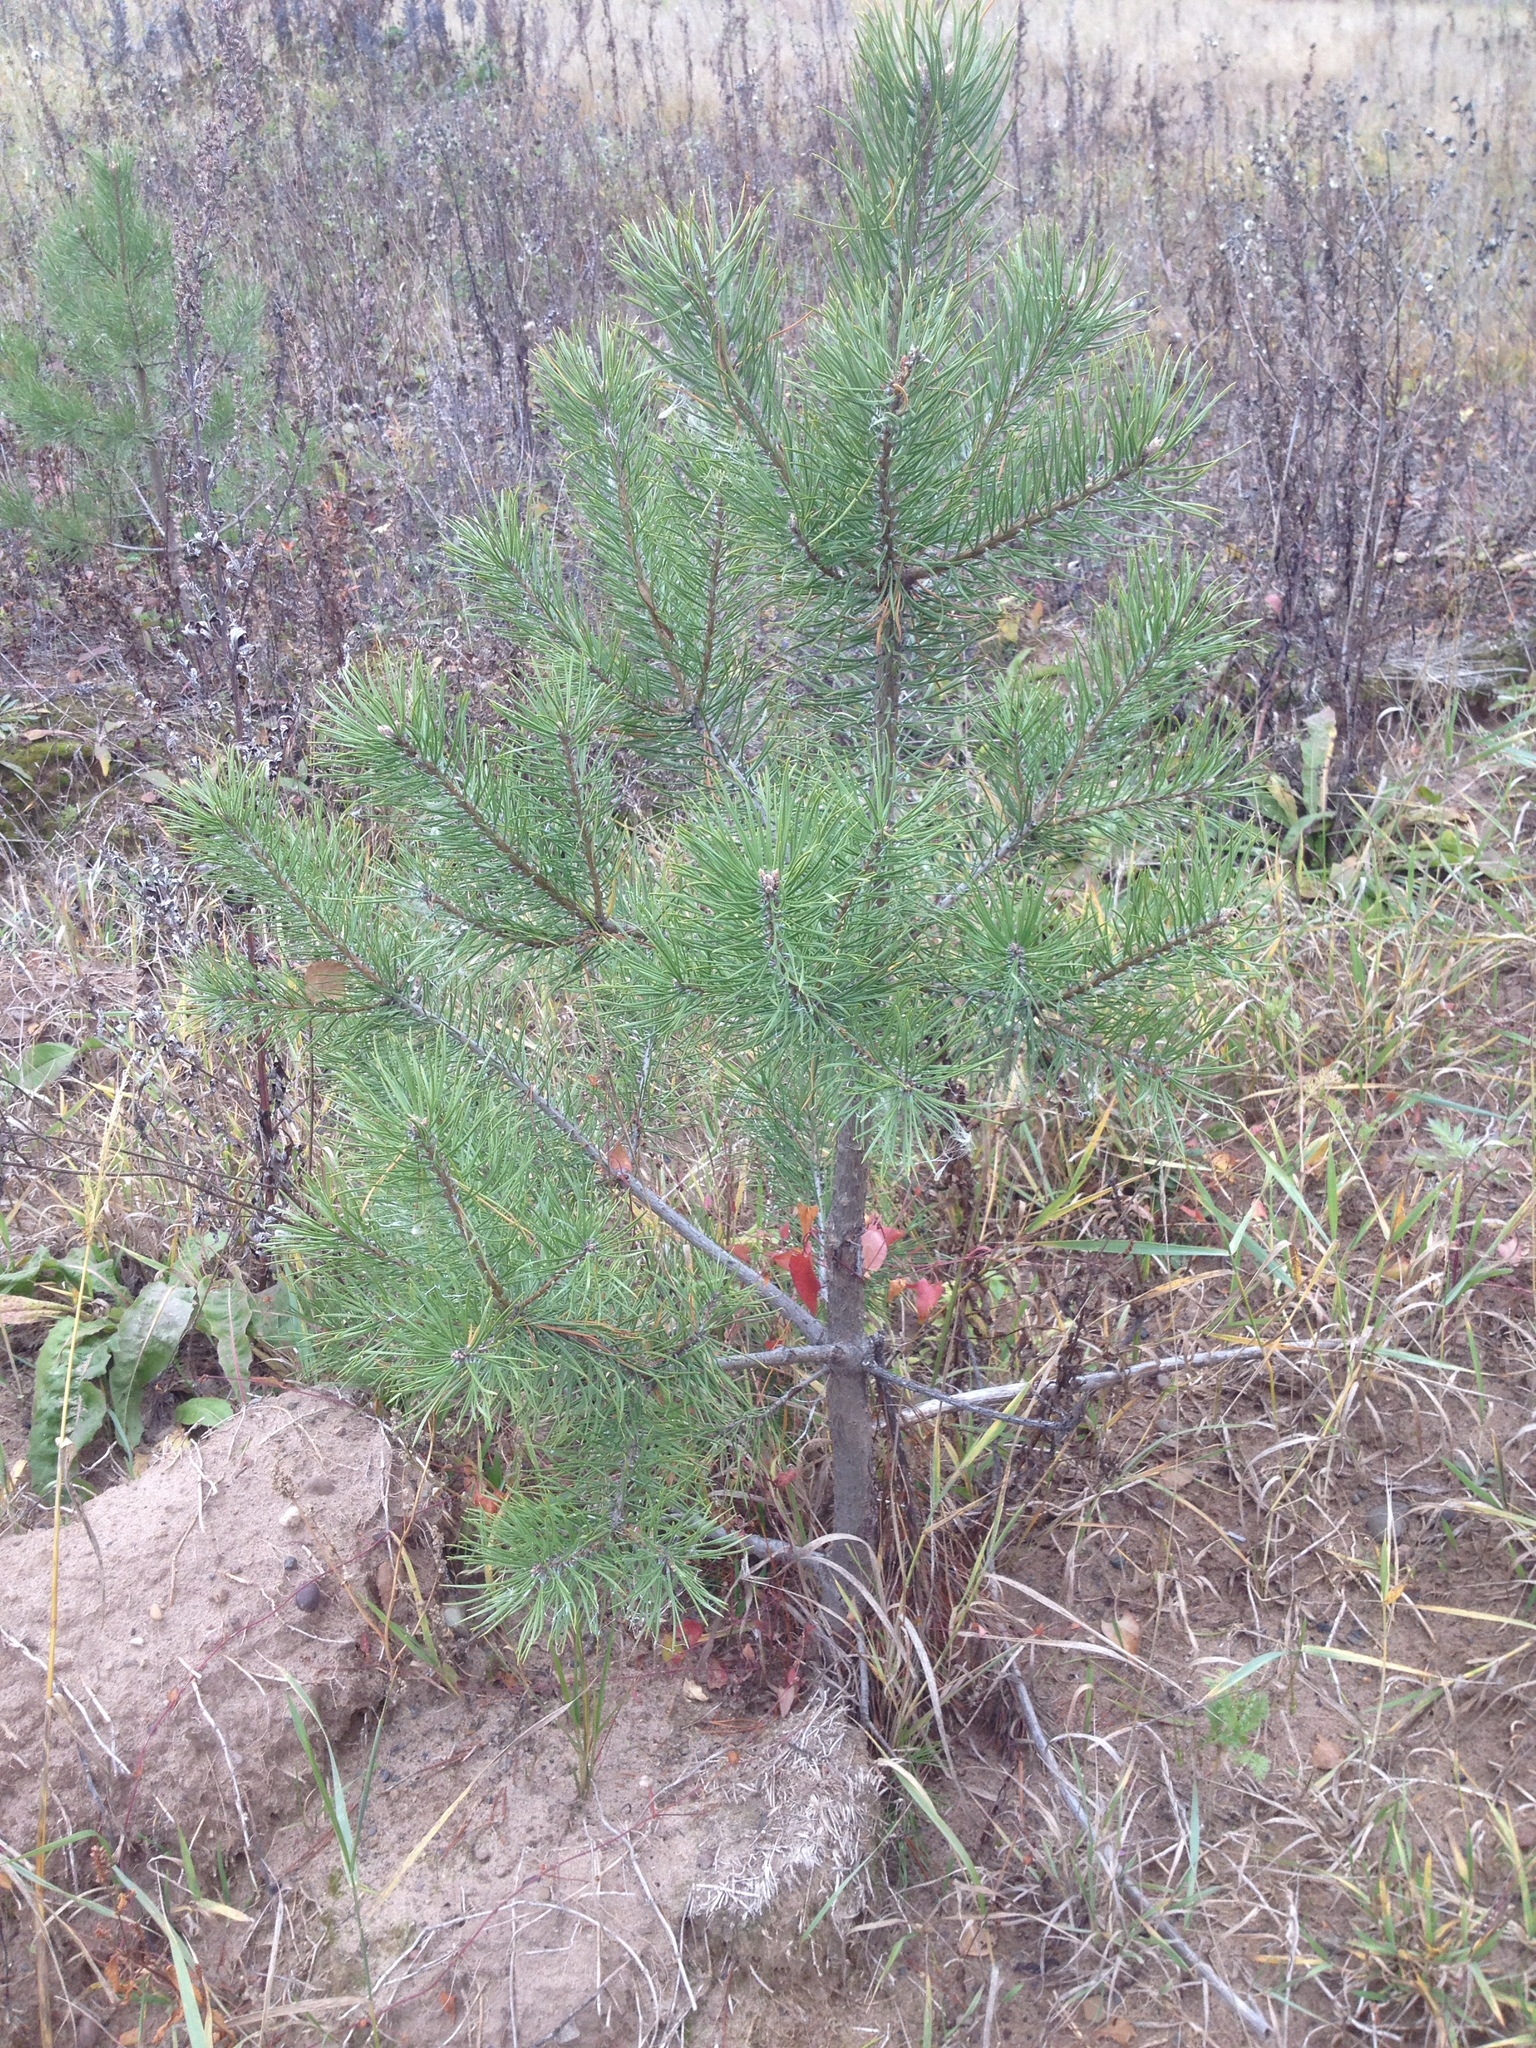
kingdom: Plantae
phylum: Tracheophyta
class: Pinopsida
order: Pinales
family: Pinaceae
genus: Pinus
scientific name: Pinus sylvestris
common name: Scots pine
